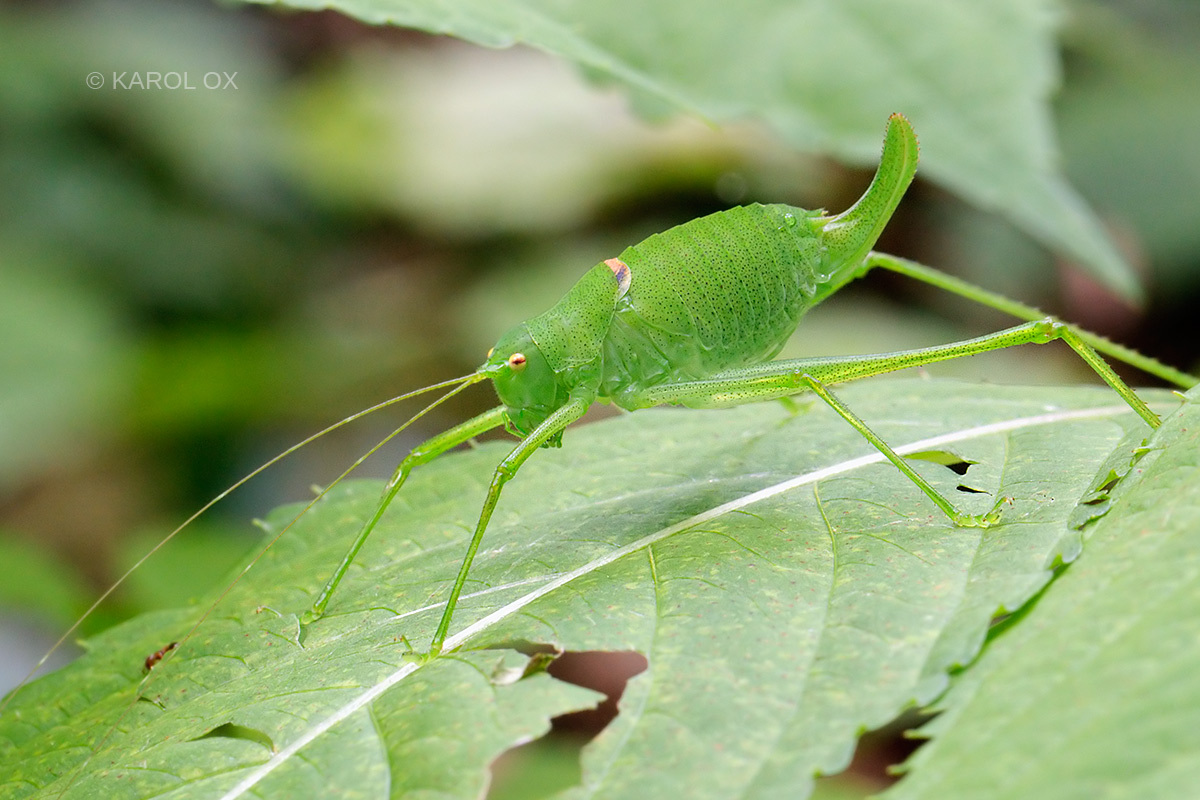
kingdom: Animalia
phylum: Arthropoda
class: Insecta
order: Orthoptera
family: Tettigoniidae
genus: Poecilimon
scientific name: Poecilimon schmidtii
